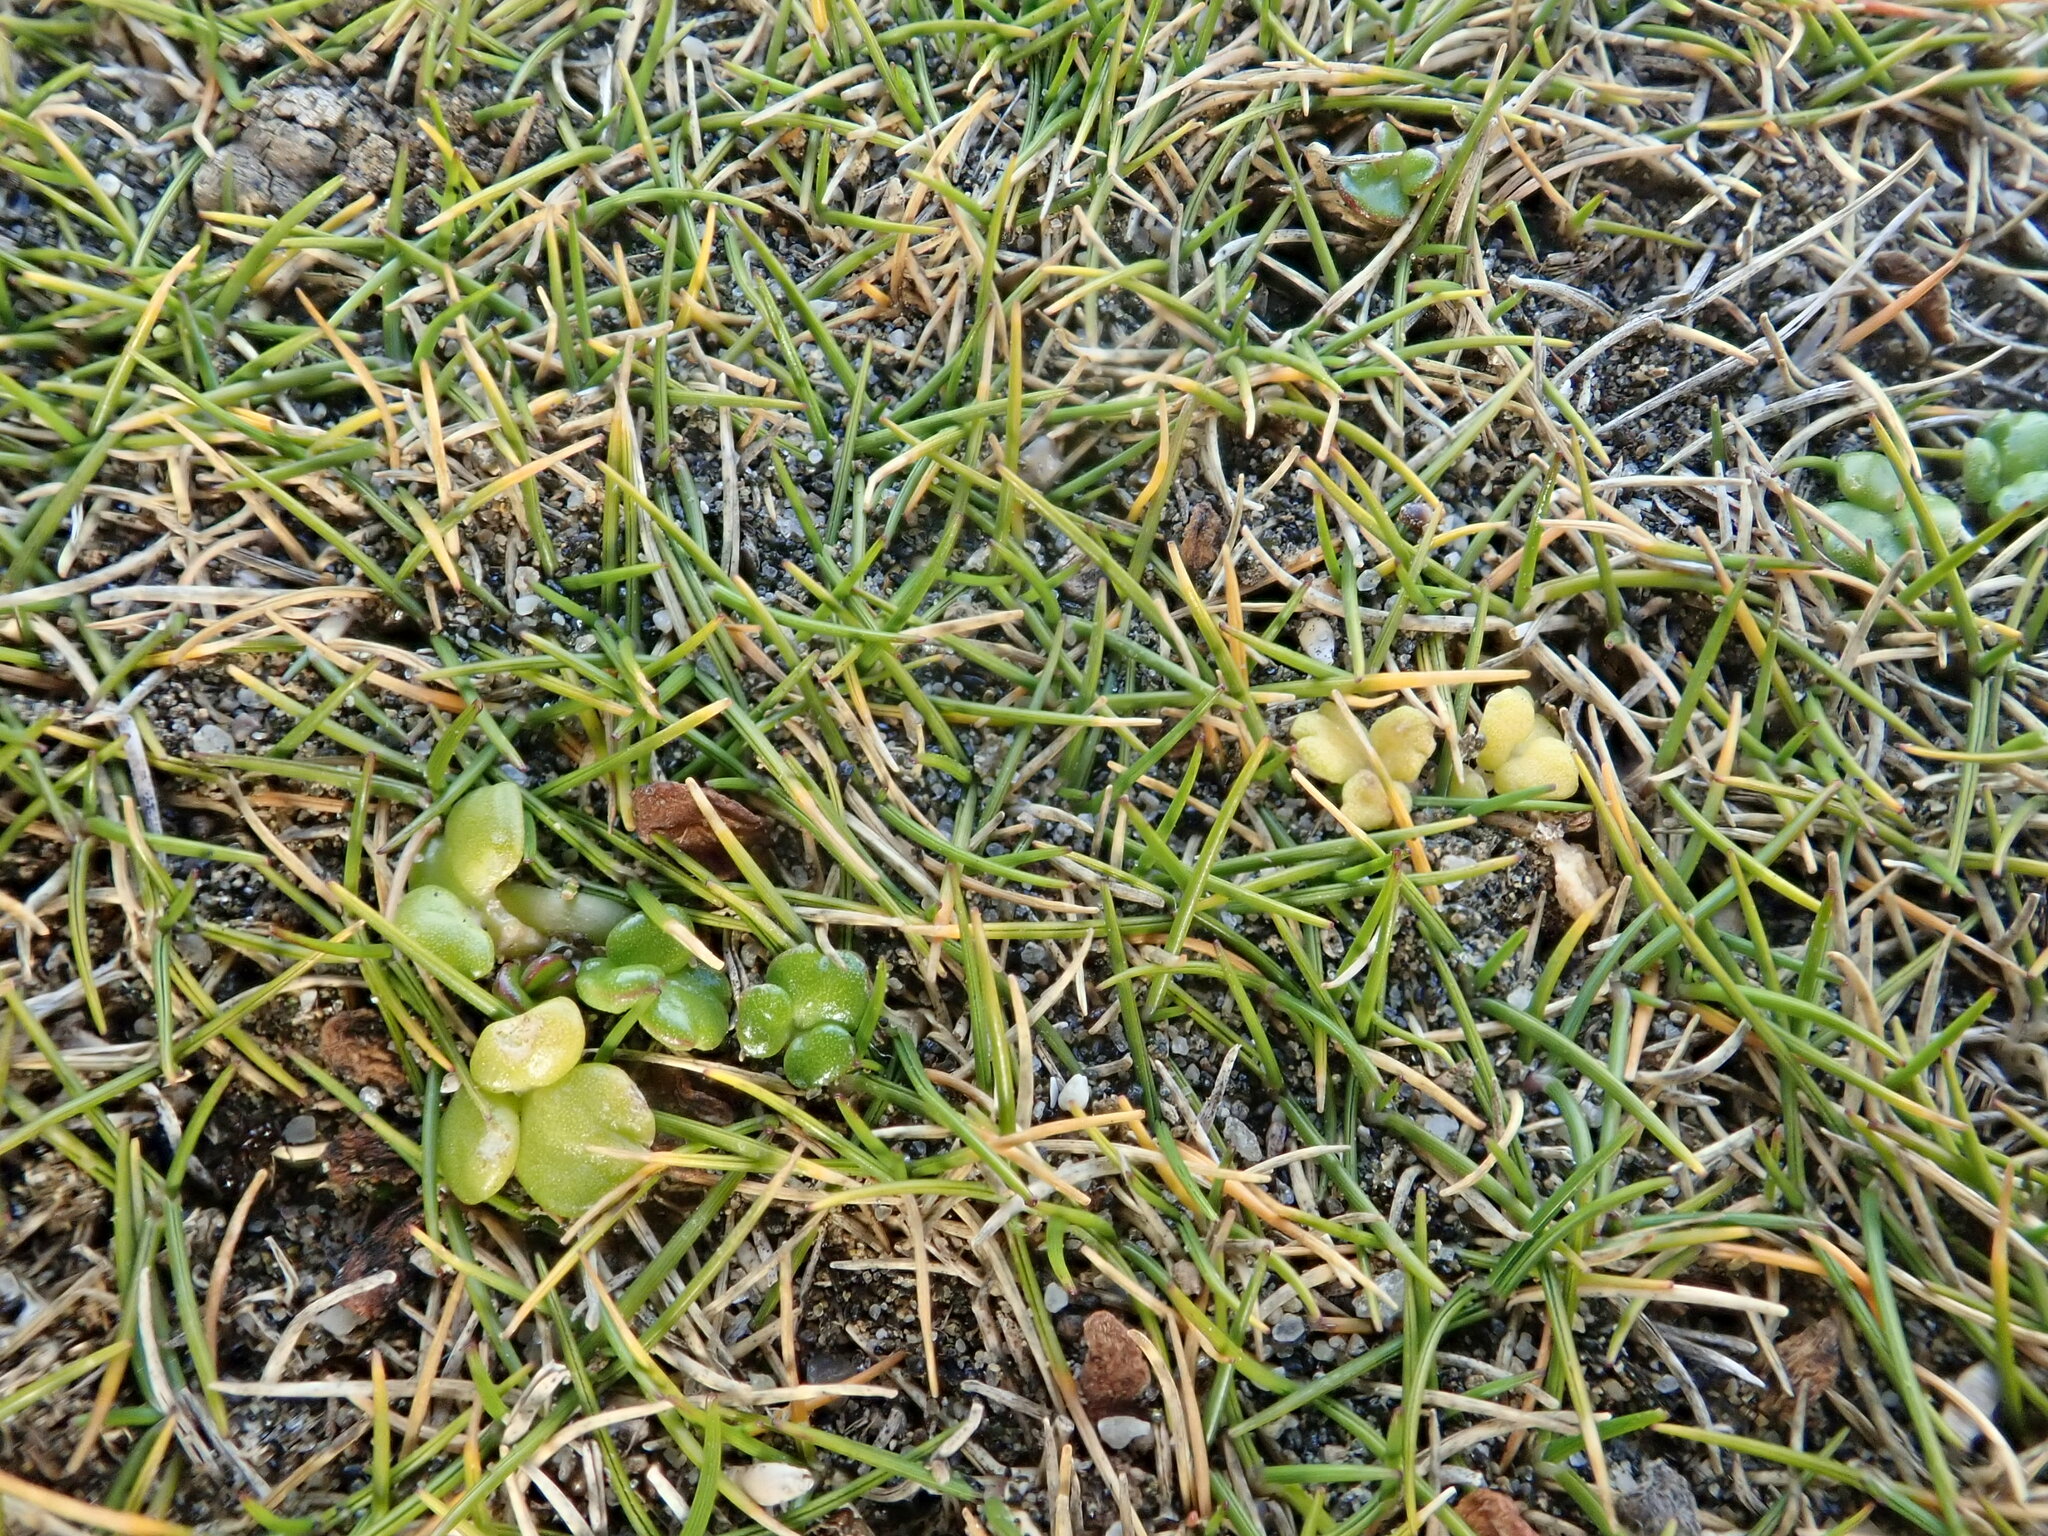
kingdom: Plantae
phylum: Tracheophyta
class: Magnoliopsida
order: Ranunculales
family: Ranunculaceae
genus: Ranunculus
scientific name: Ranunculus acaulis
